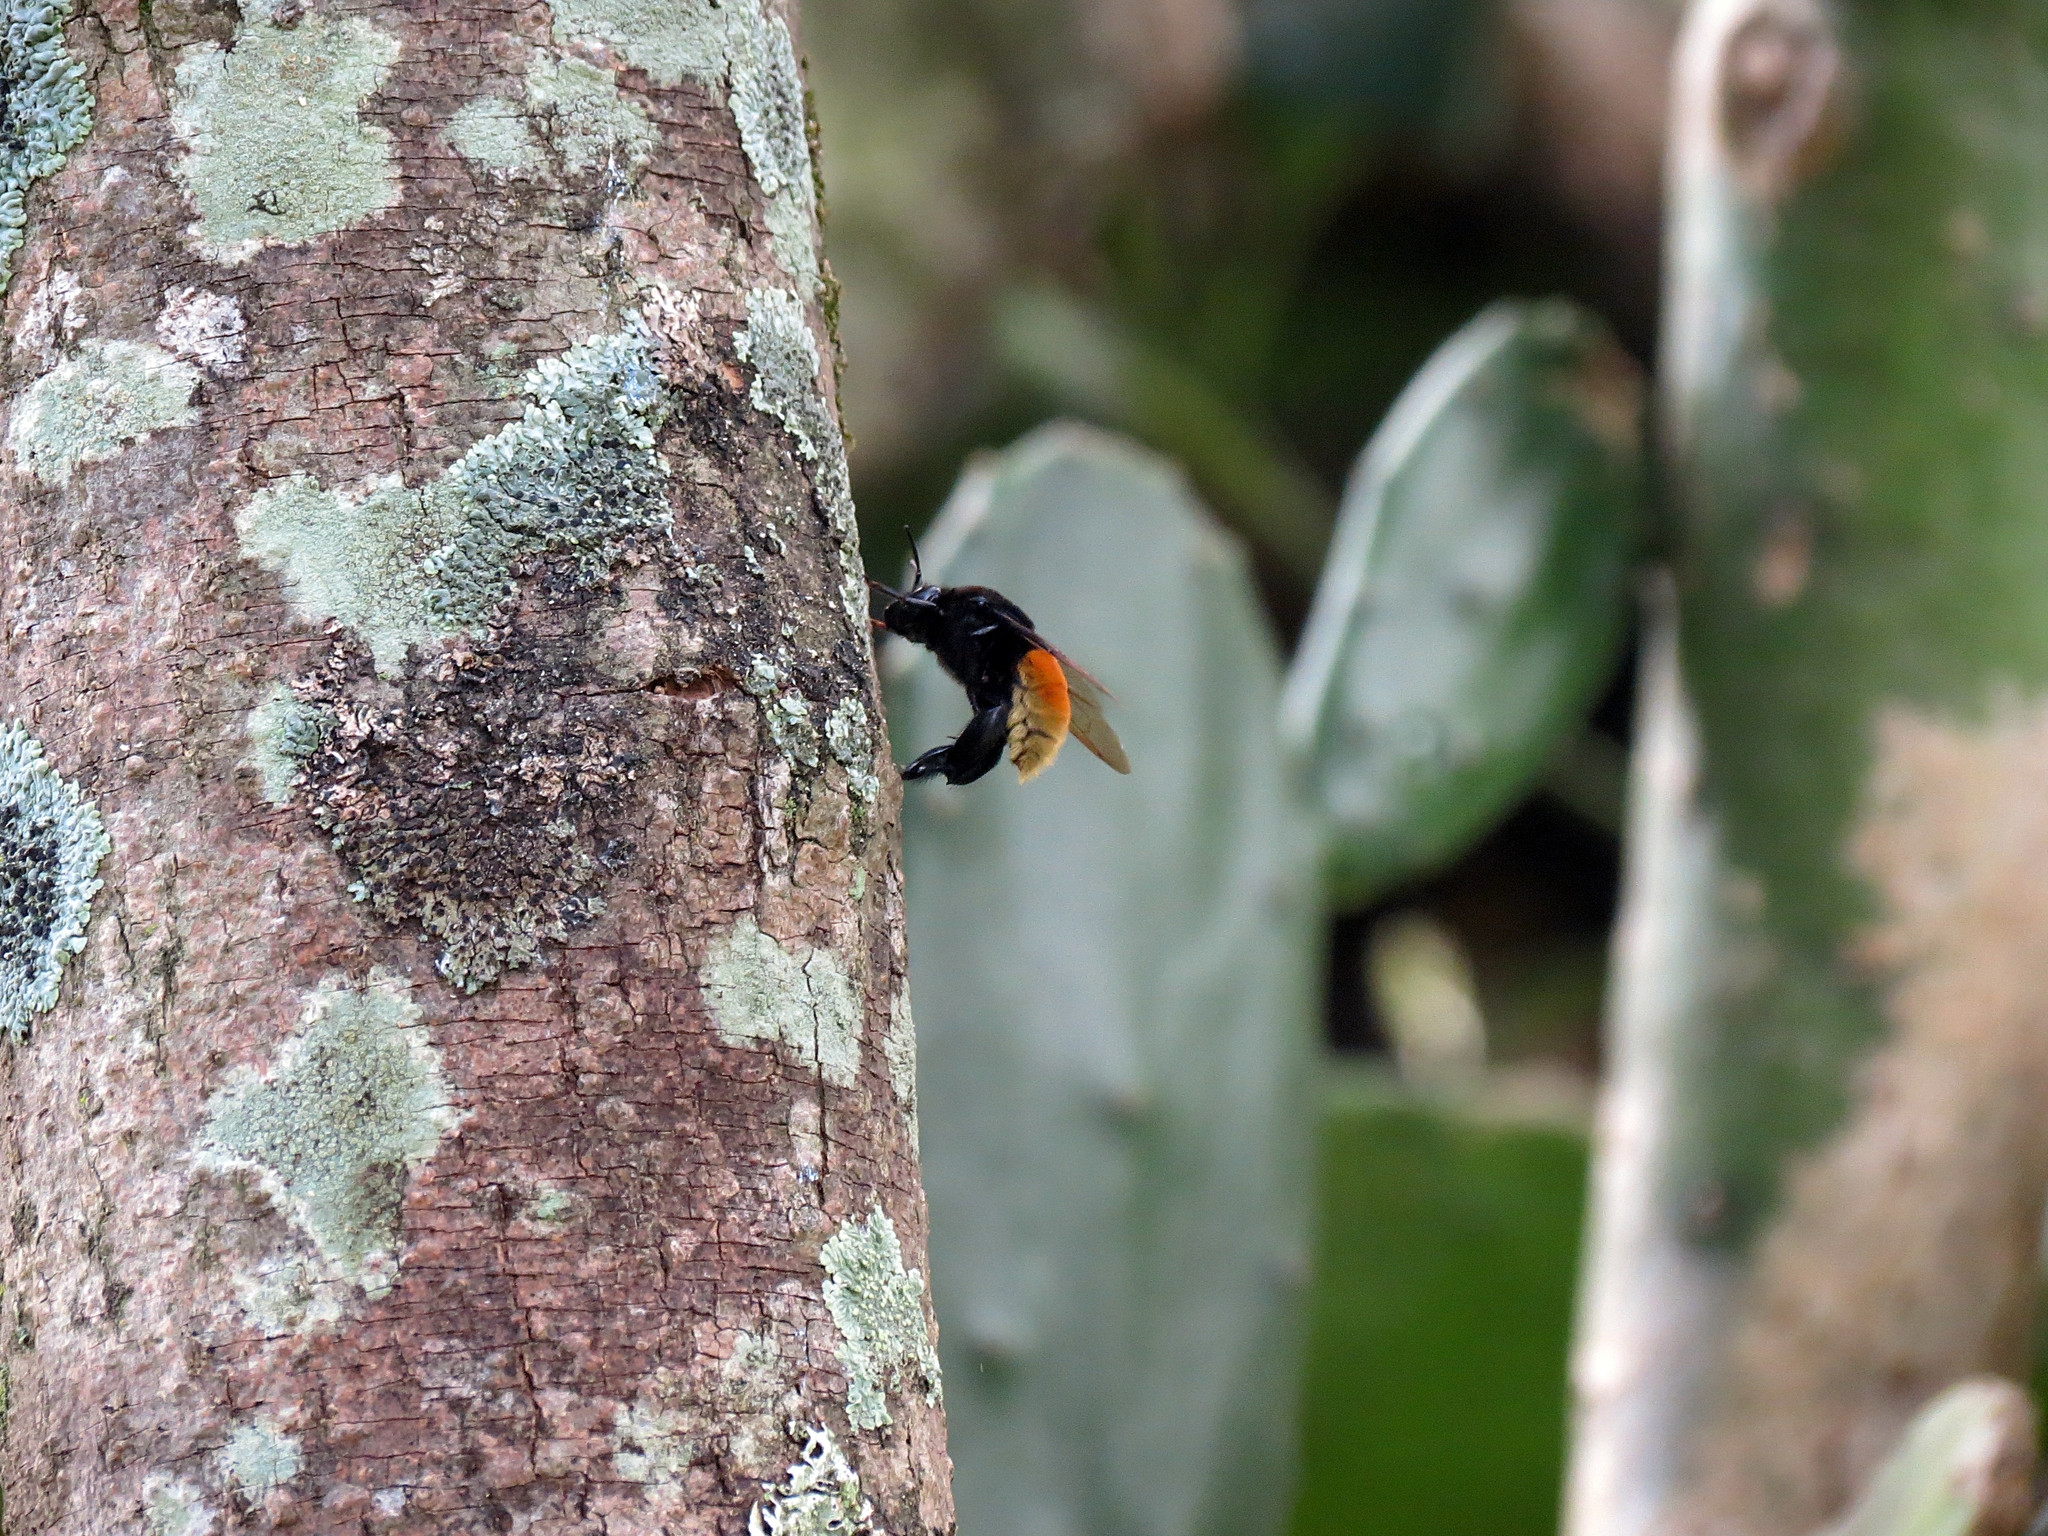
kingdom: Animalia
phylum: Arthropoda
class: Insecta
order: Hymenoptera
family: Apidae
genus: Eulaema
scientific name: Eulaema polychroma
